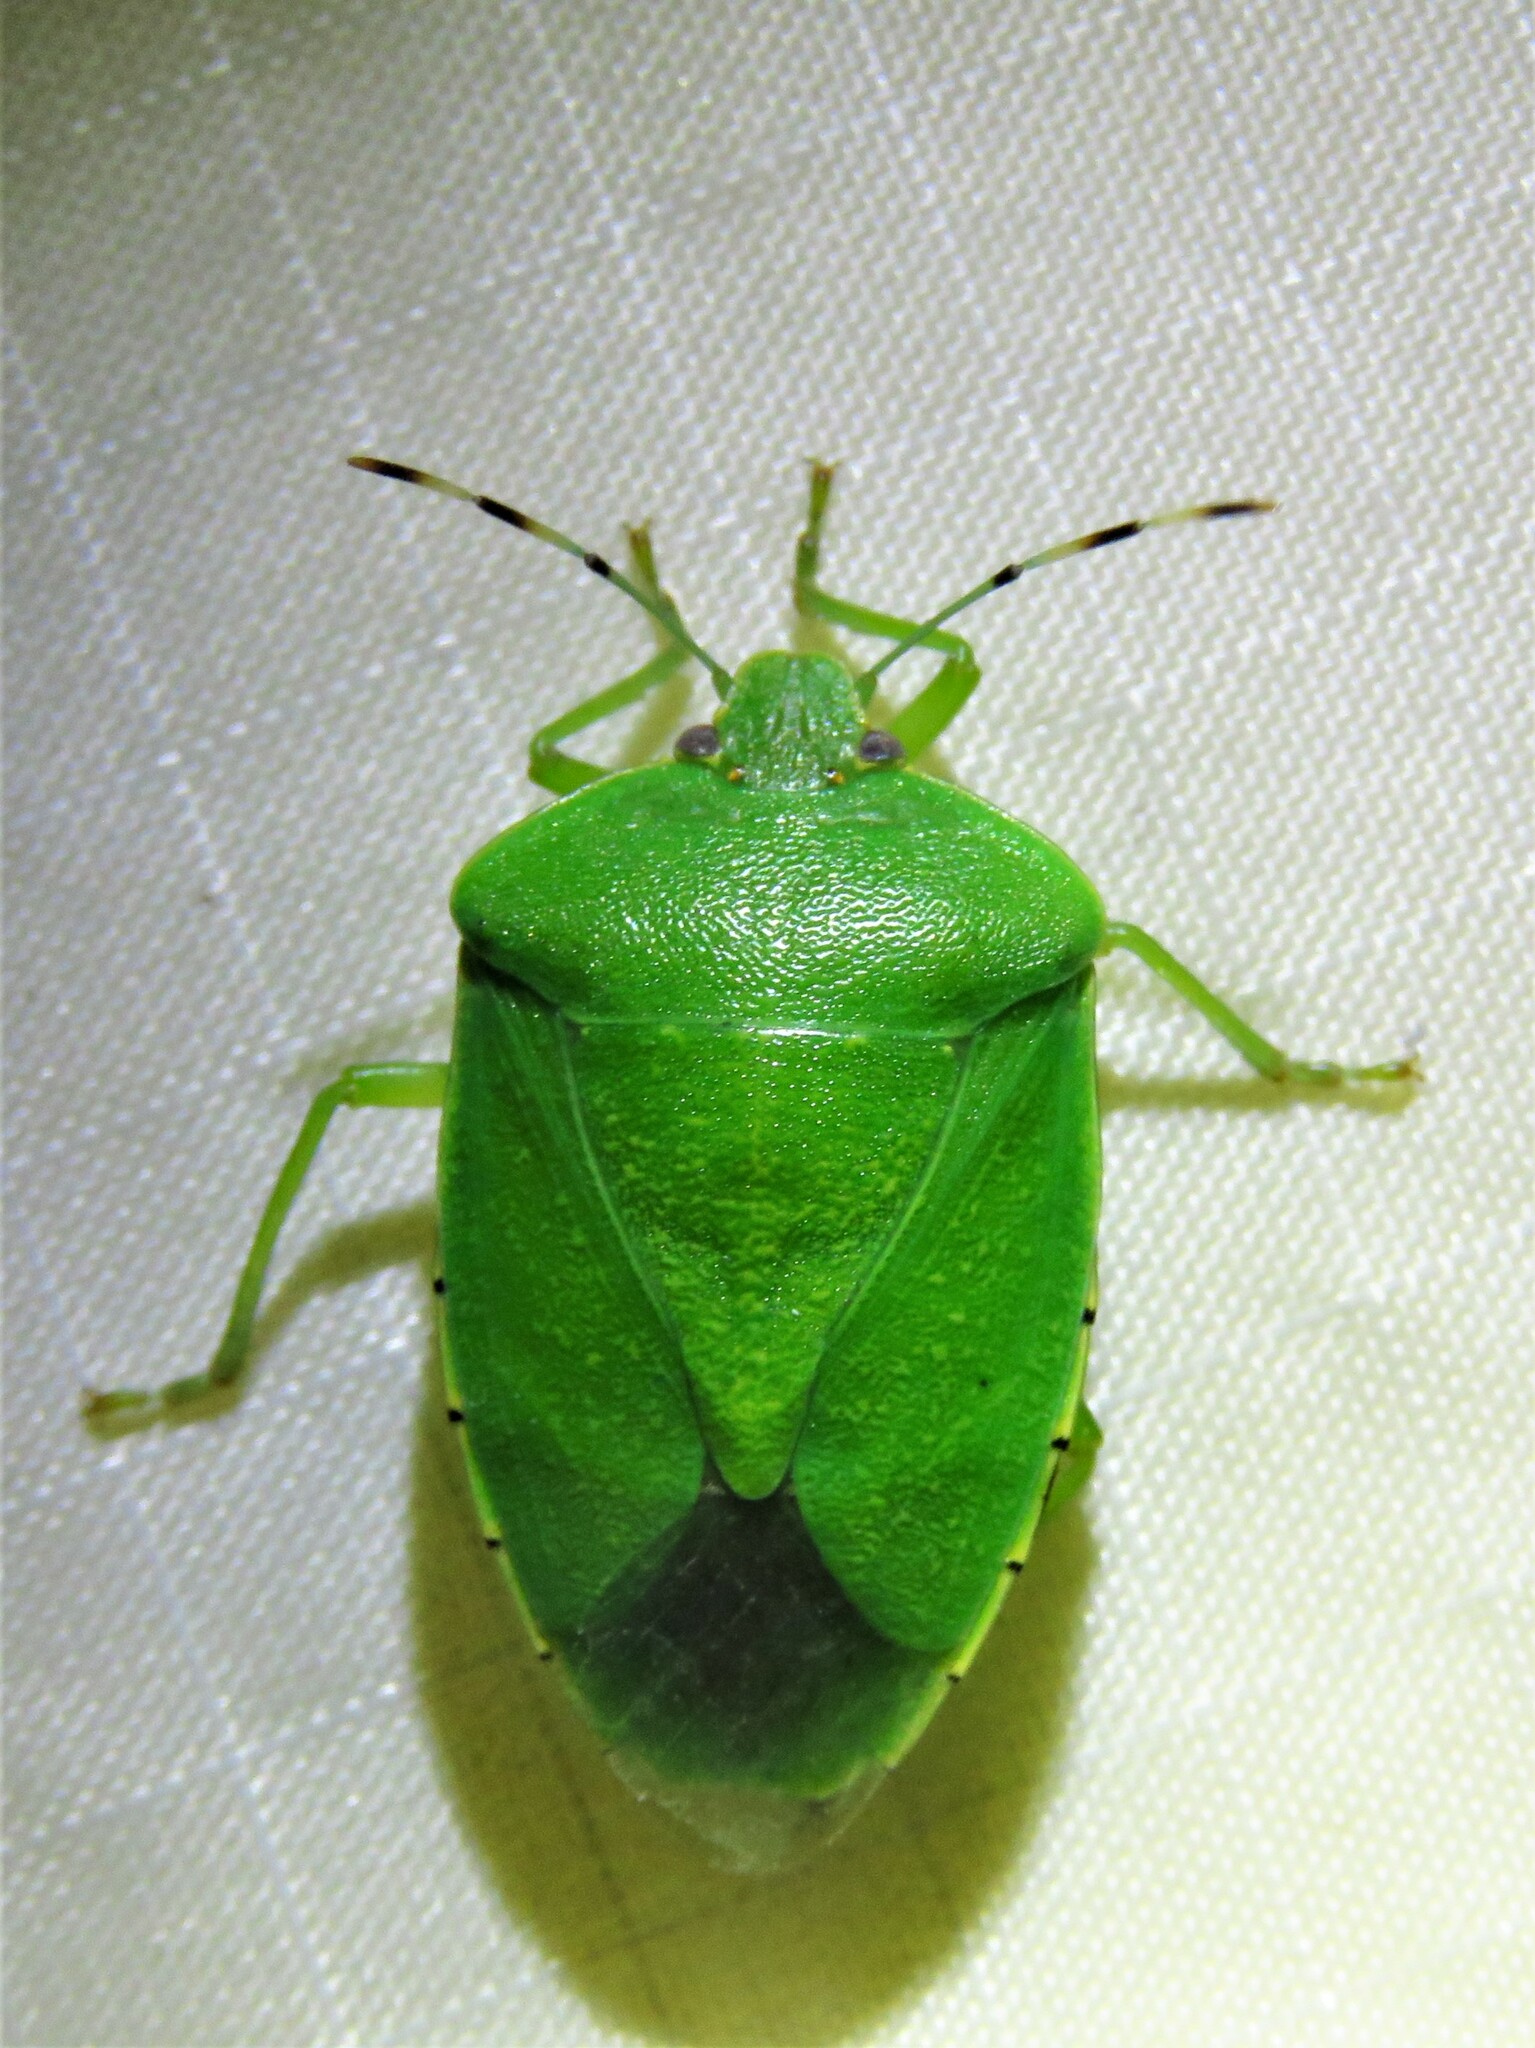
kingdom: Animalia
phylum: Arthropoda
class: Insecta
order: Hemiptera
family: Pentatomidae
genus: Chinavia
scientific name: Chinavia hilaris
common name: Green stink bug
